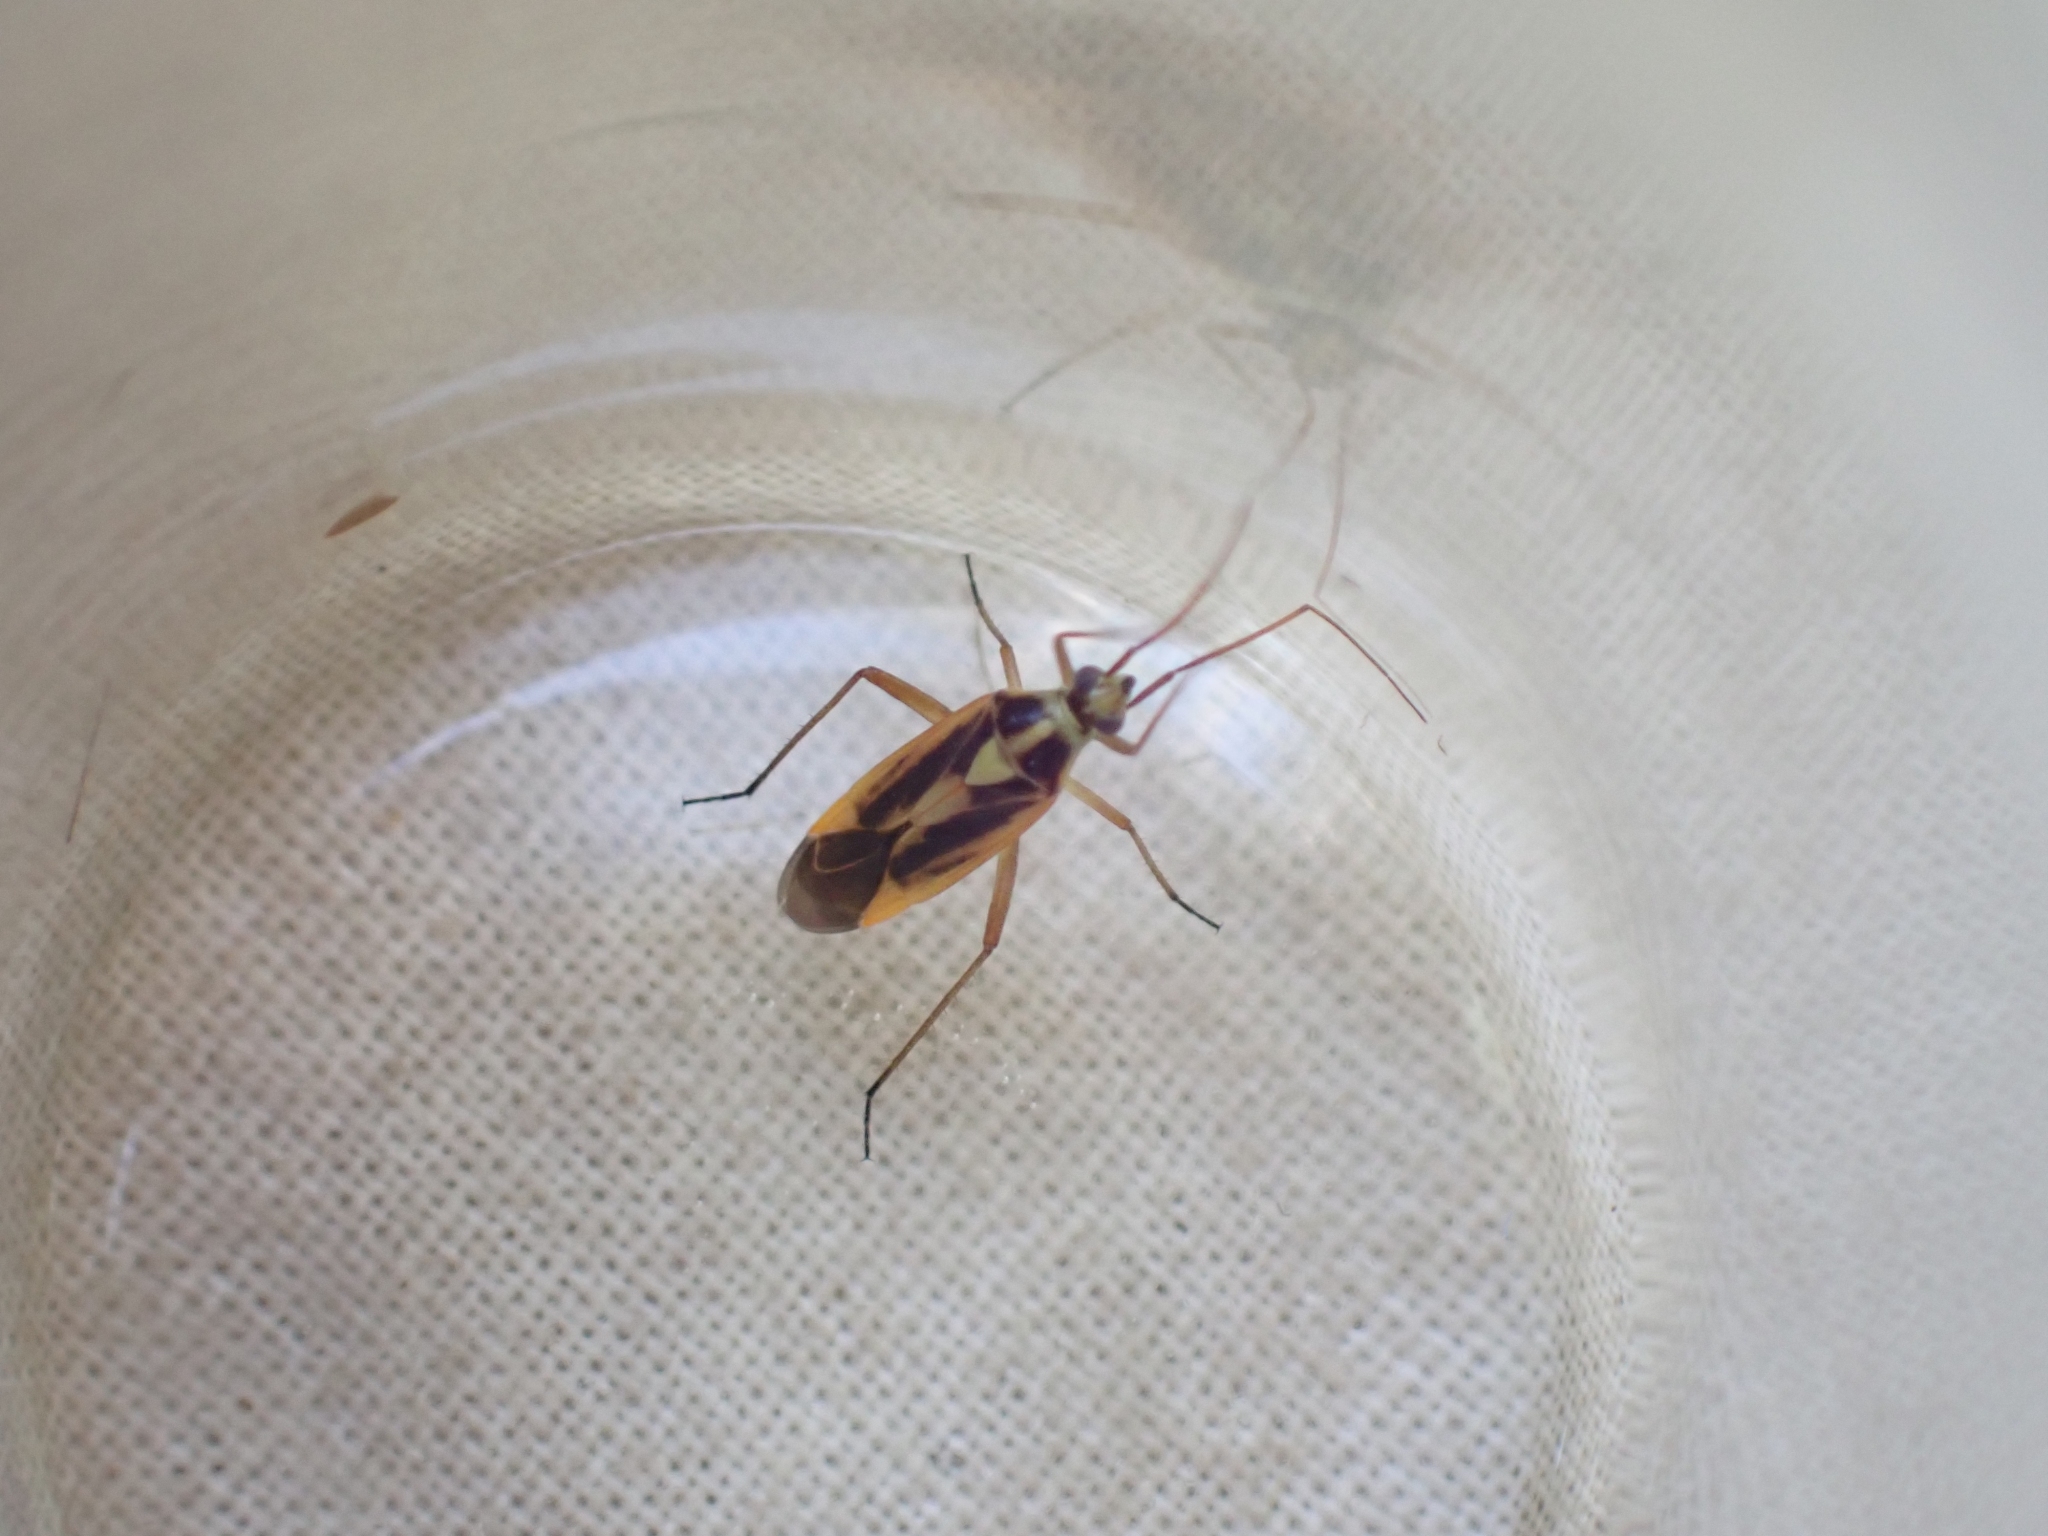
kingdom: Animalia
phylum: Arthropoda
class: Insecta
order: Hemiptera
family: Miridae
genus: Stenotus
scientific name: Stenotus binotatus
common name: Plant bug
